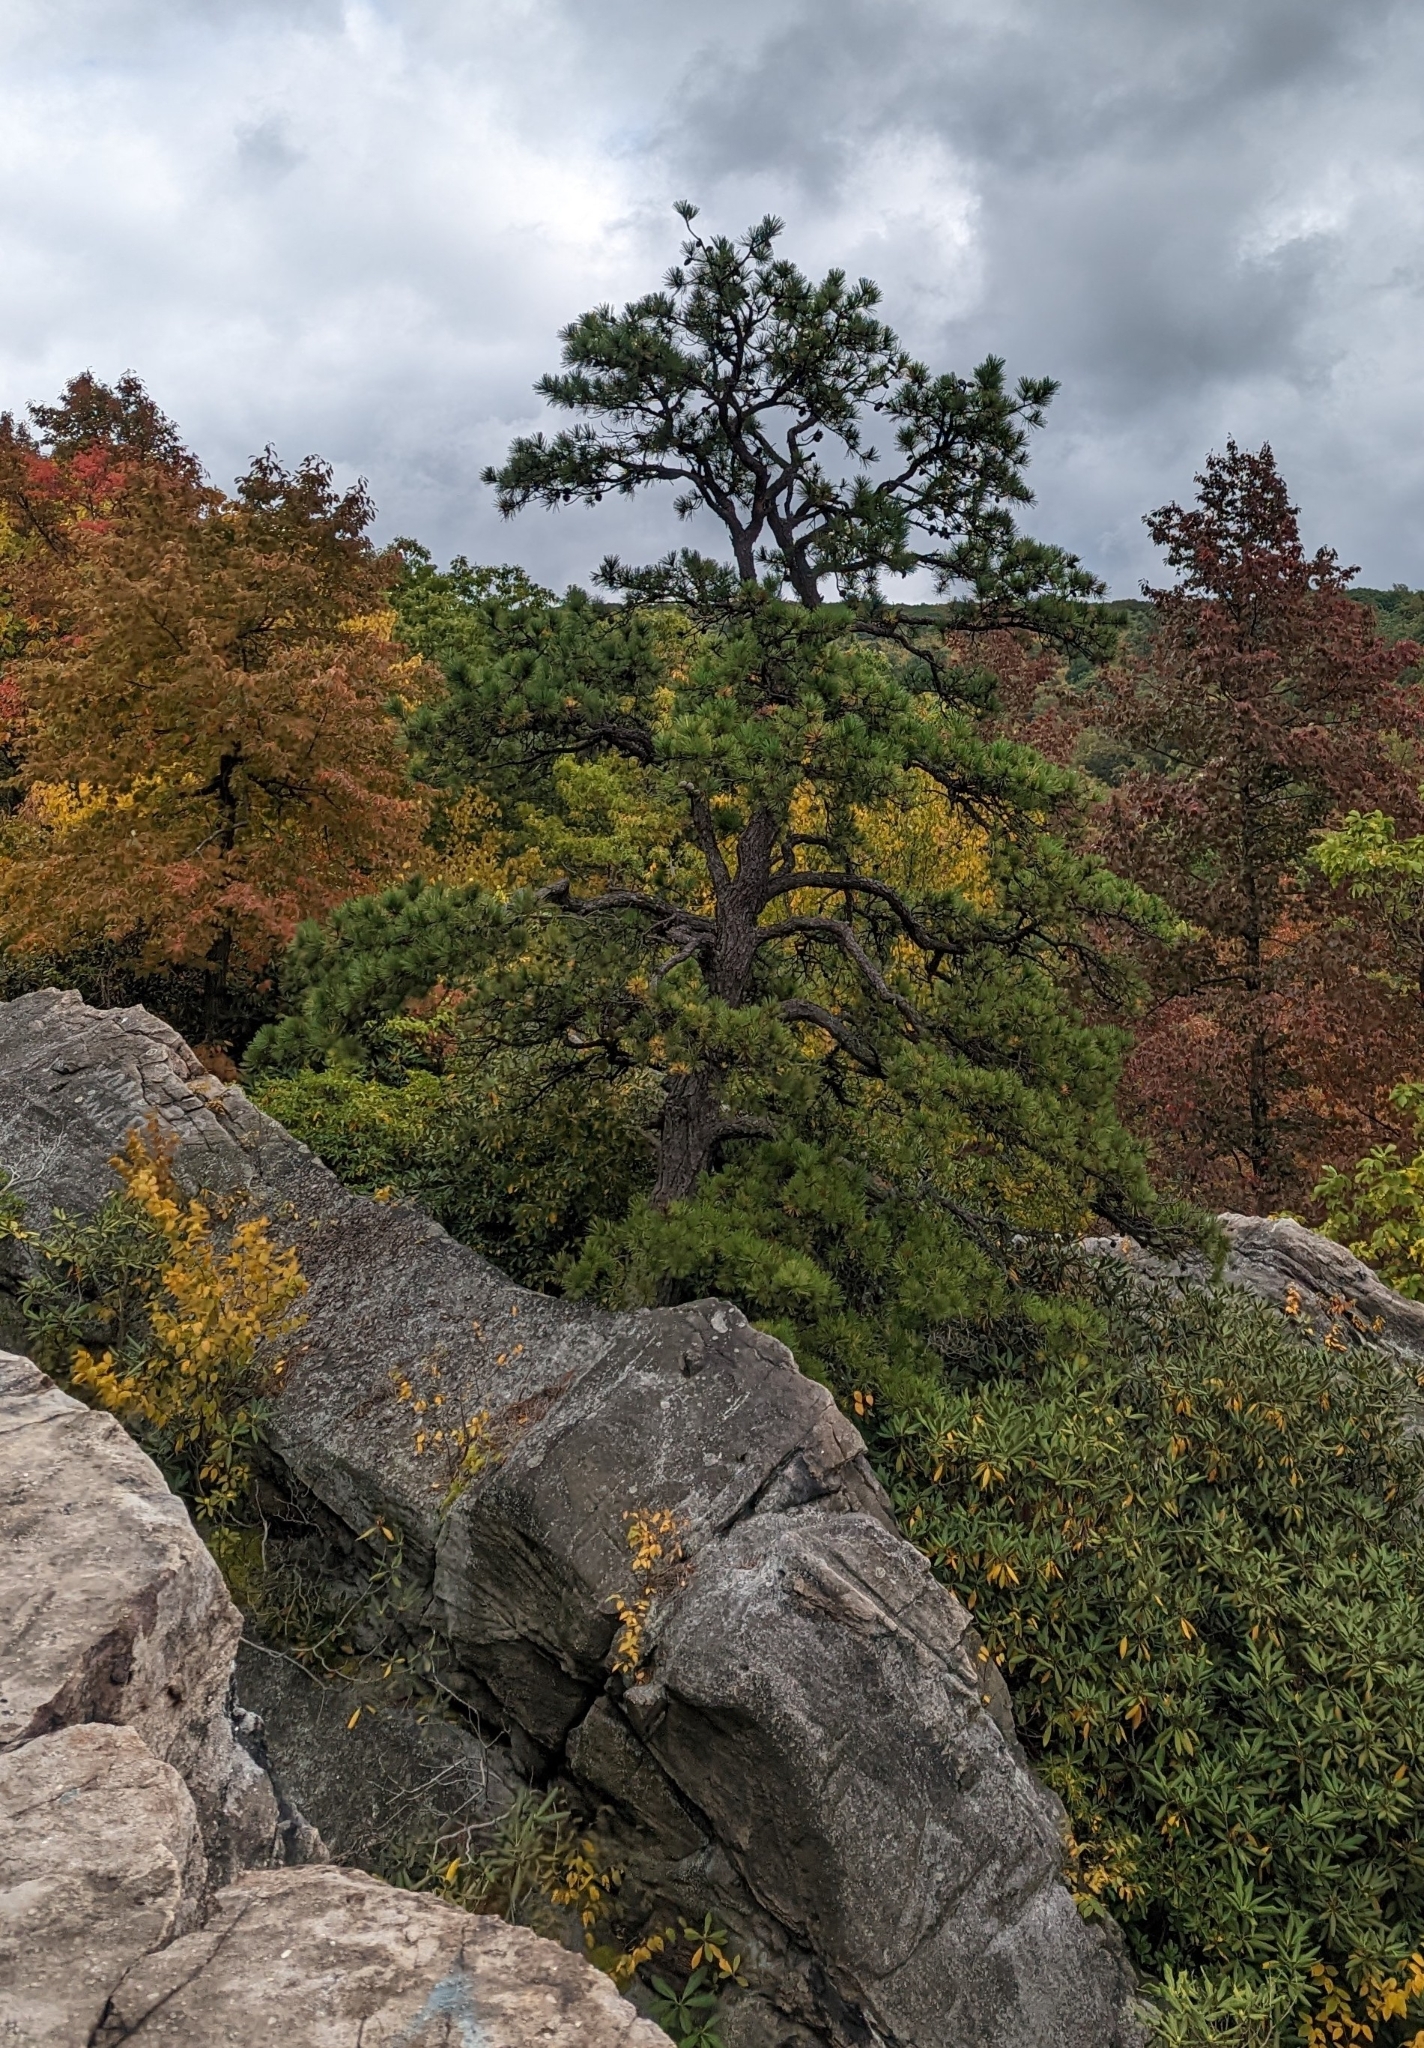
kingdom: Plantae
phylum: Tracheophyta
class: Pinopsida
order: Pinales
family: Pinaceae
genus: Pinus
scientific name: Pinus rigida
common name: Pitch pine
